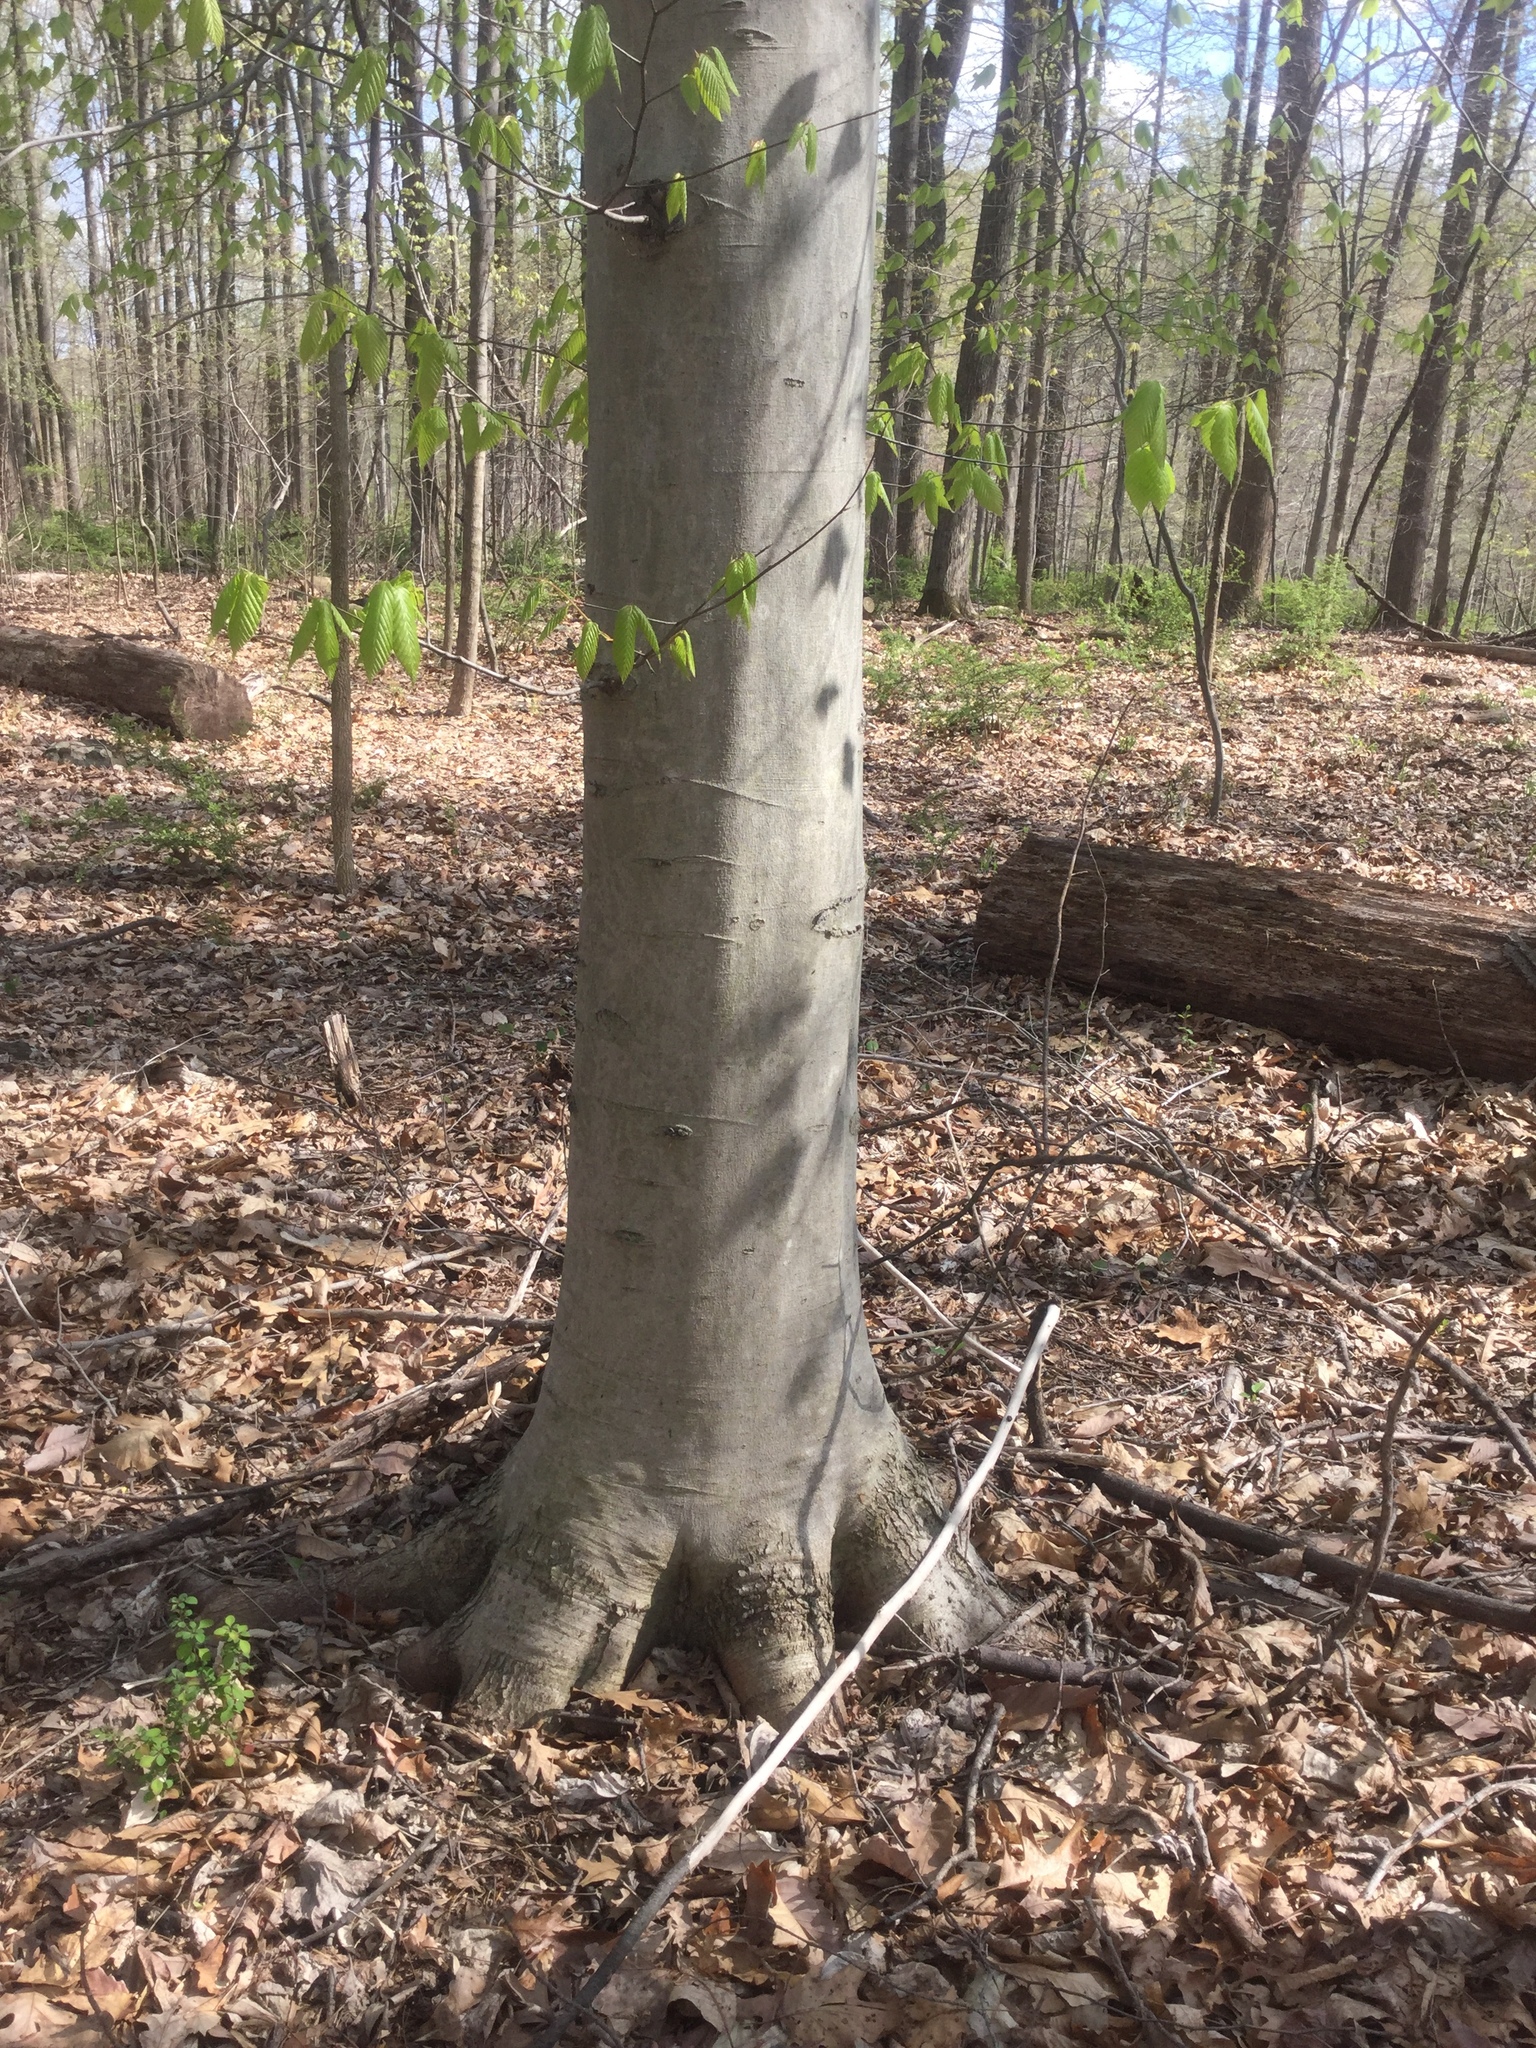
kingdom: Plantae
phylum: Tracheophyta
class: Magnoliopsida
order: Fagales
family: Fagaceae
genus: Fagus
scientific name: Fagus grandifolia
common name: American beech
